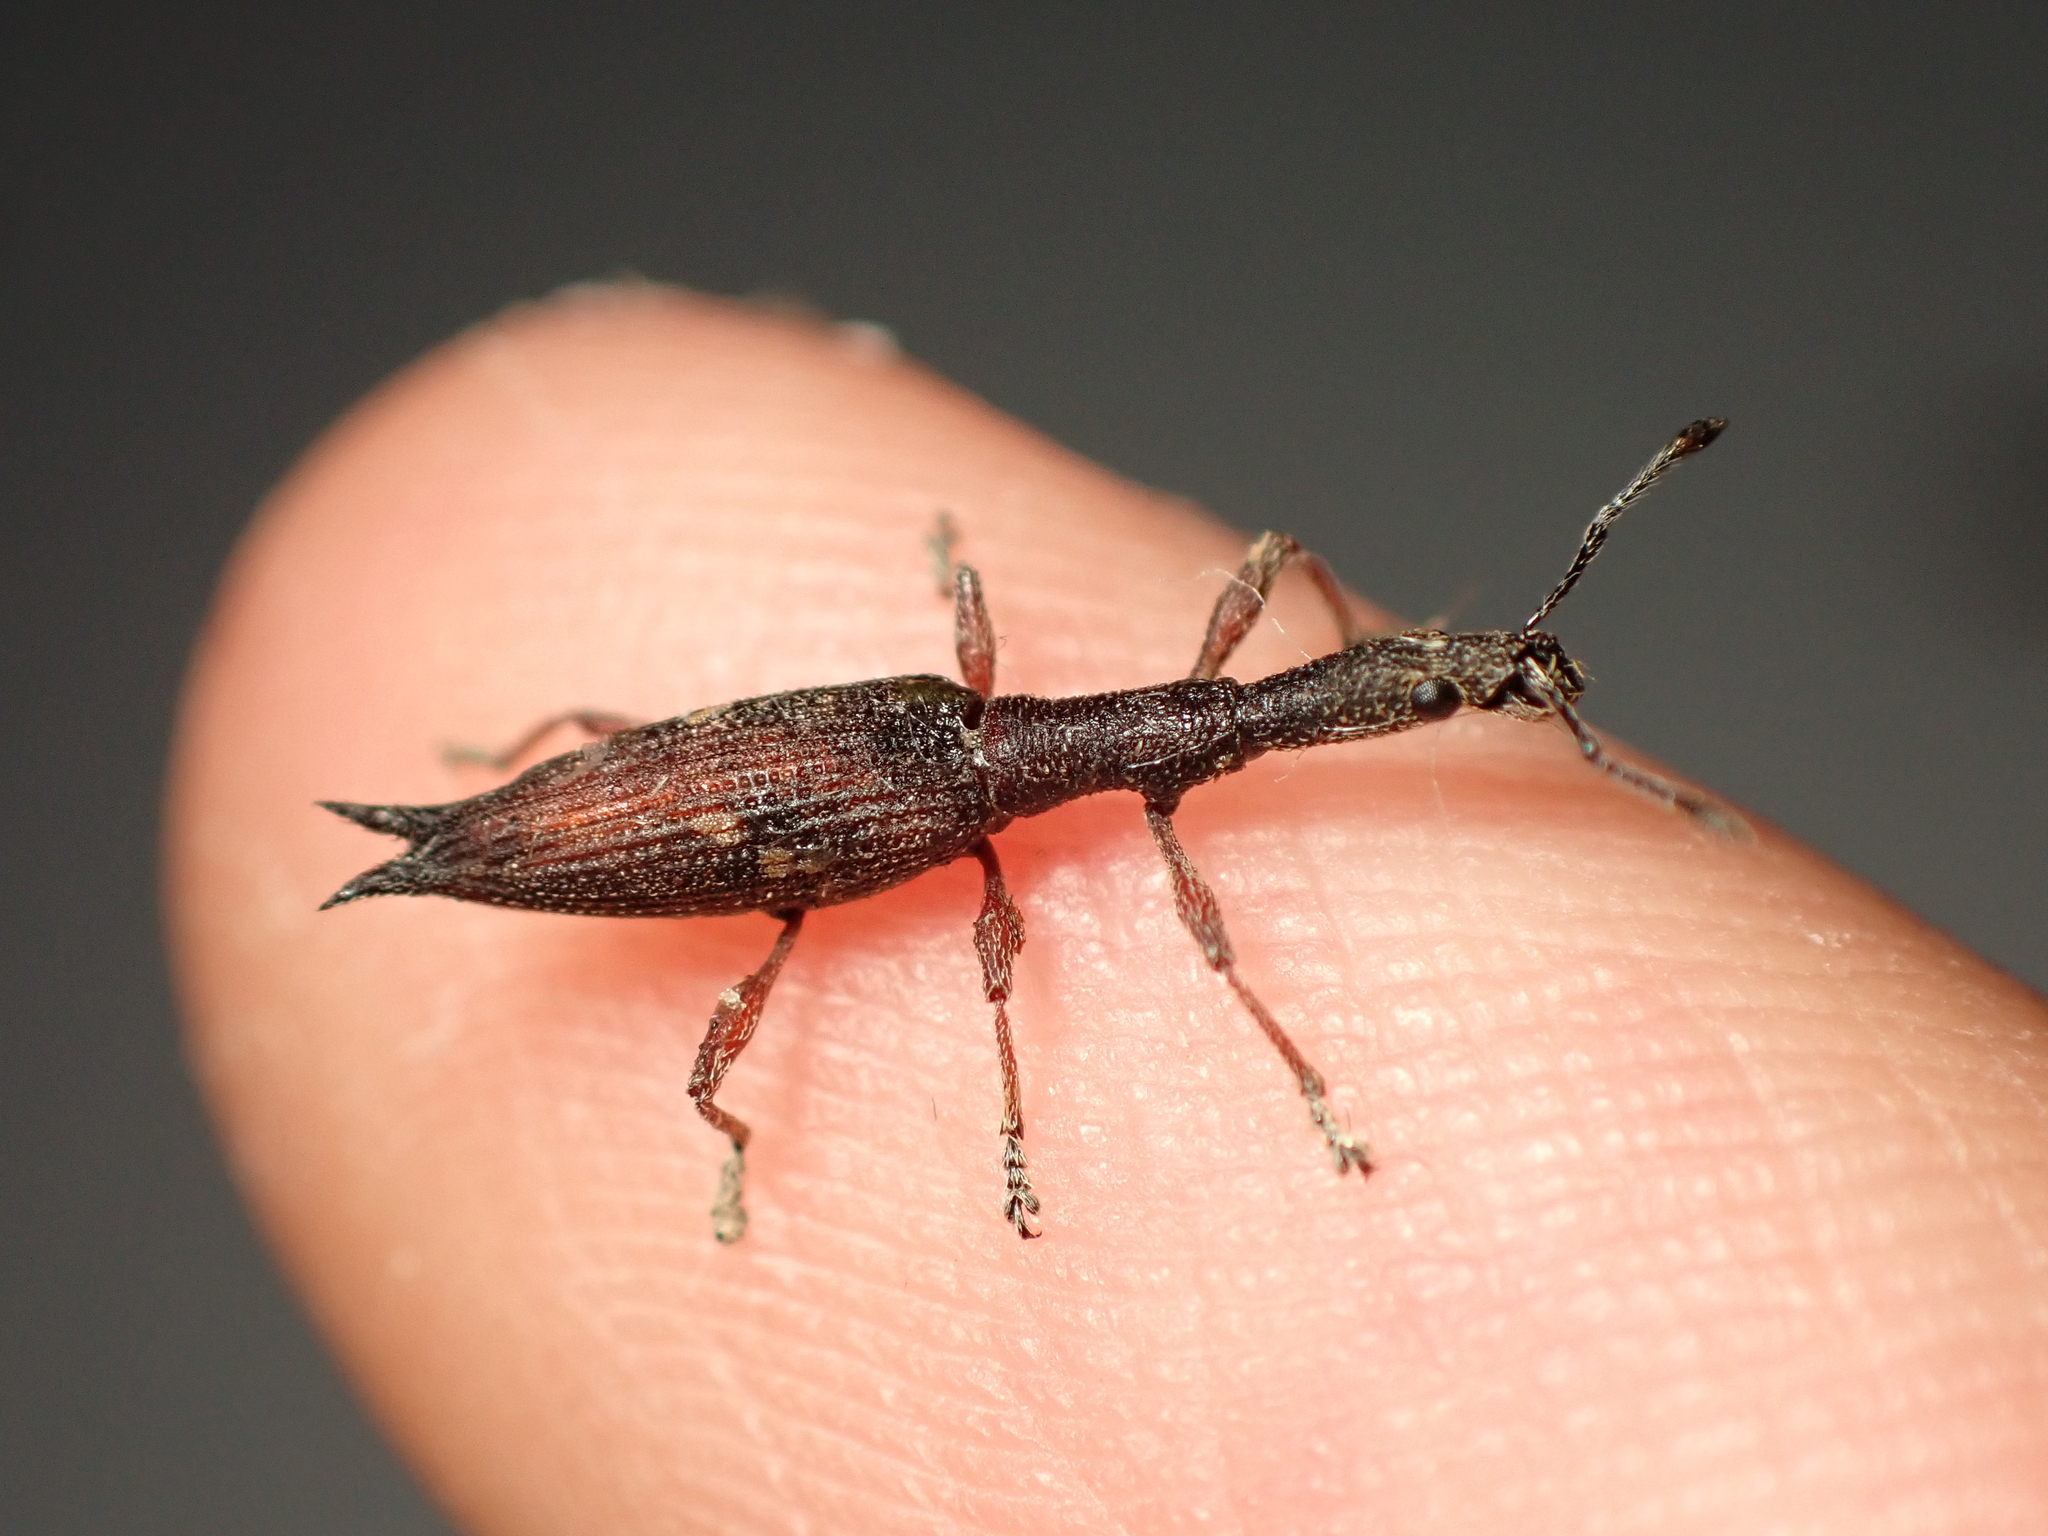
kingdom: Animalia
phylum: Arthropoda
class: Insecta
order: Coleoptera
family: Curculionidae
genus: Rhadinosomus
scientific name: Rhadinosomus acuminatus
